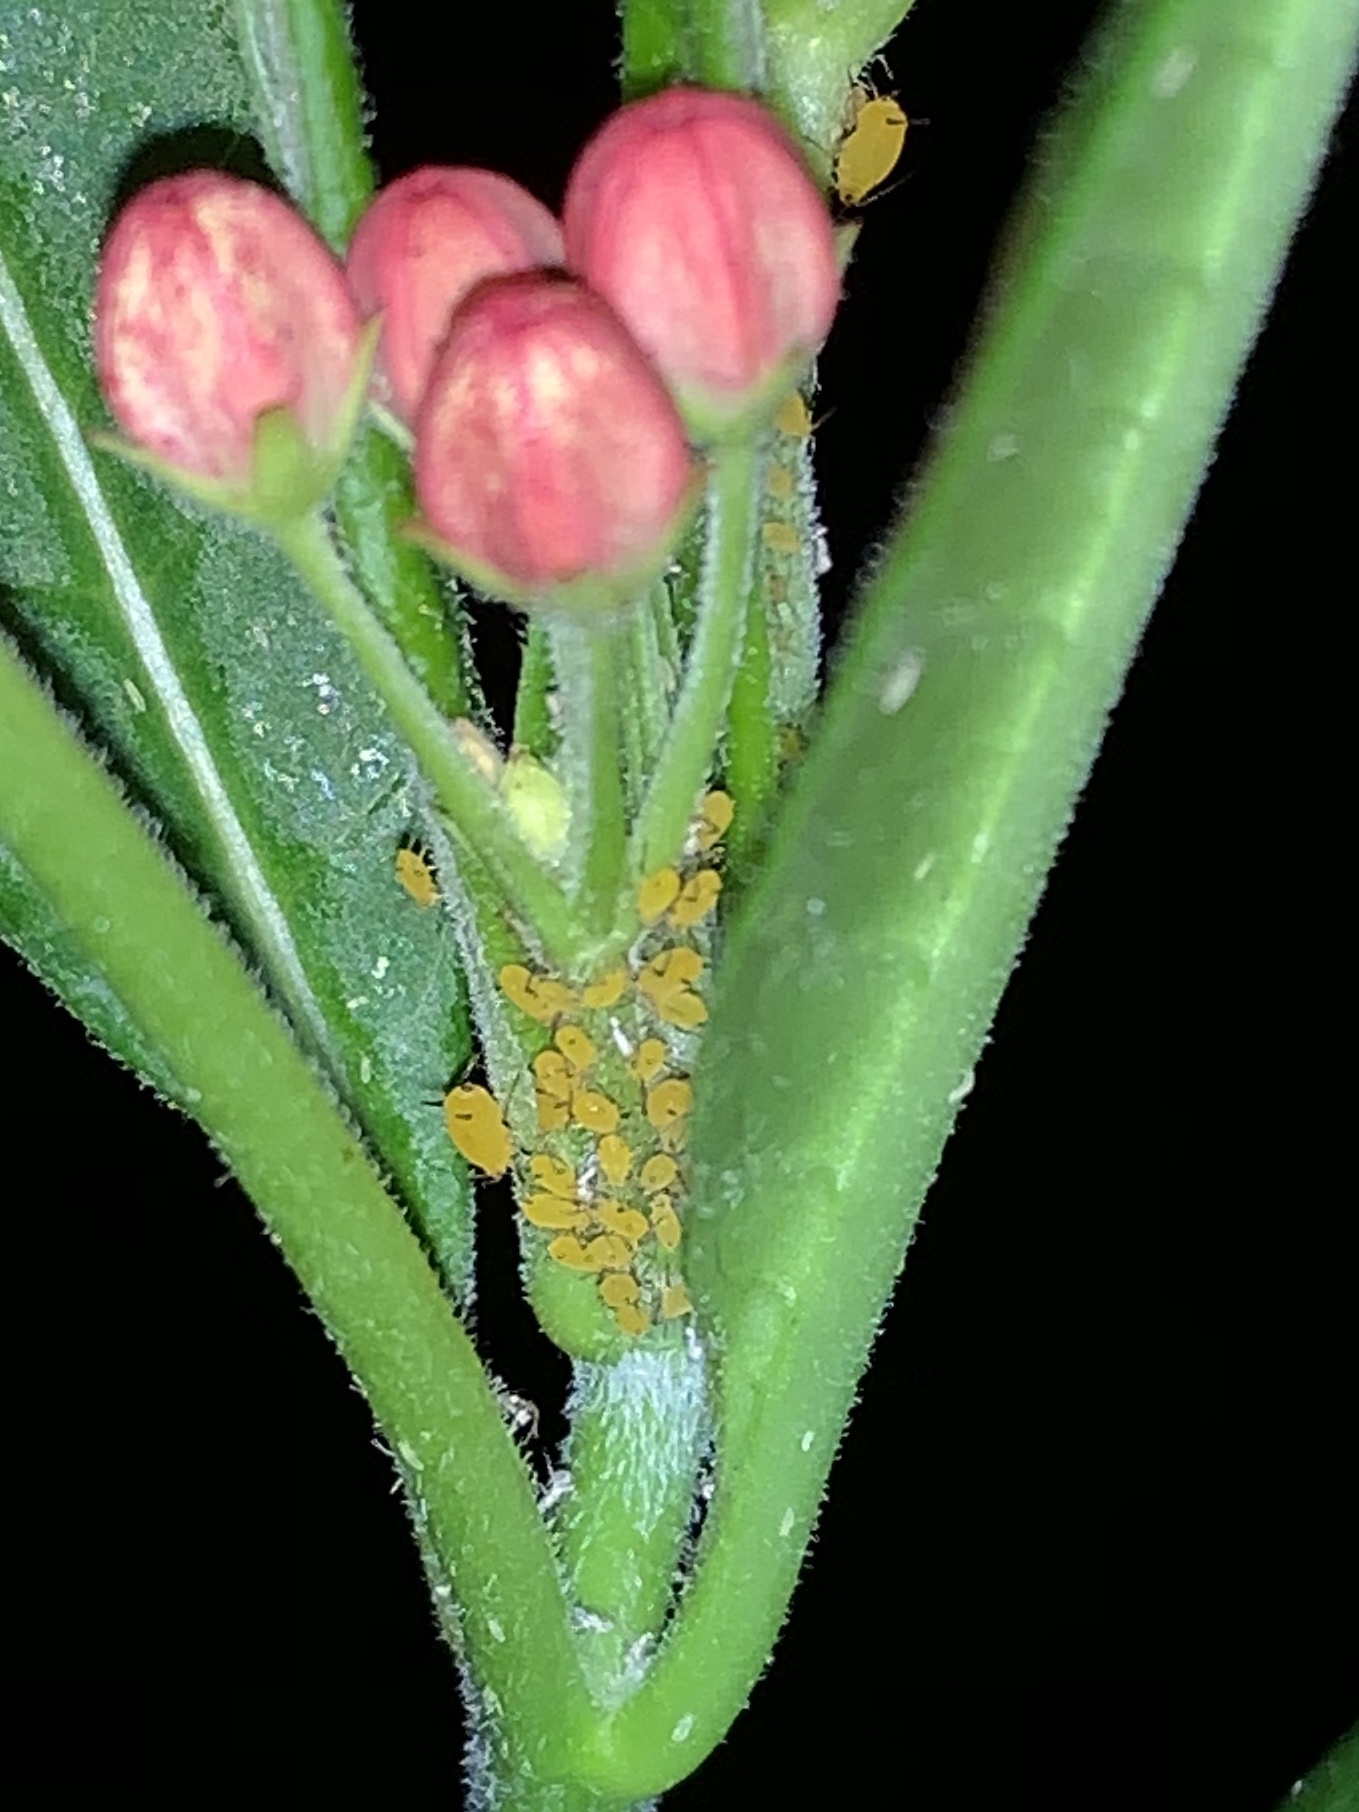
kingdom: Animalia
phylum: Arthropoda
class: Insecta
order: Hemiptera
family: Aphididae
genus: Aphis
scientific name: Aphis nerii
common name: Oleander aphid
